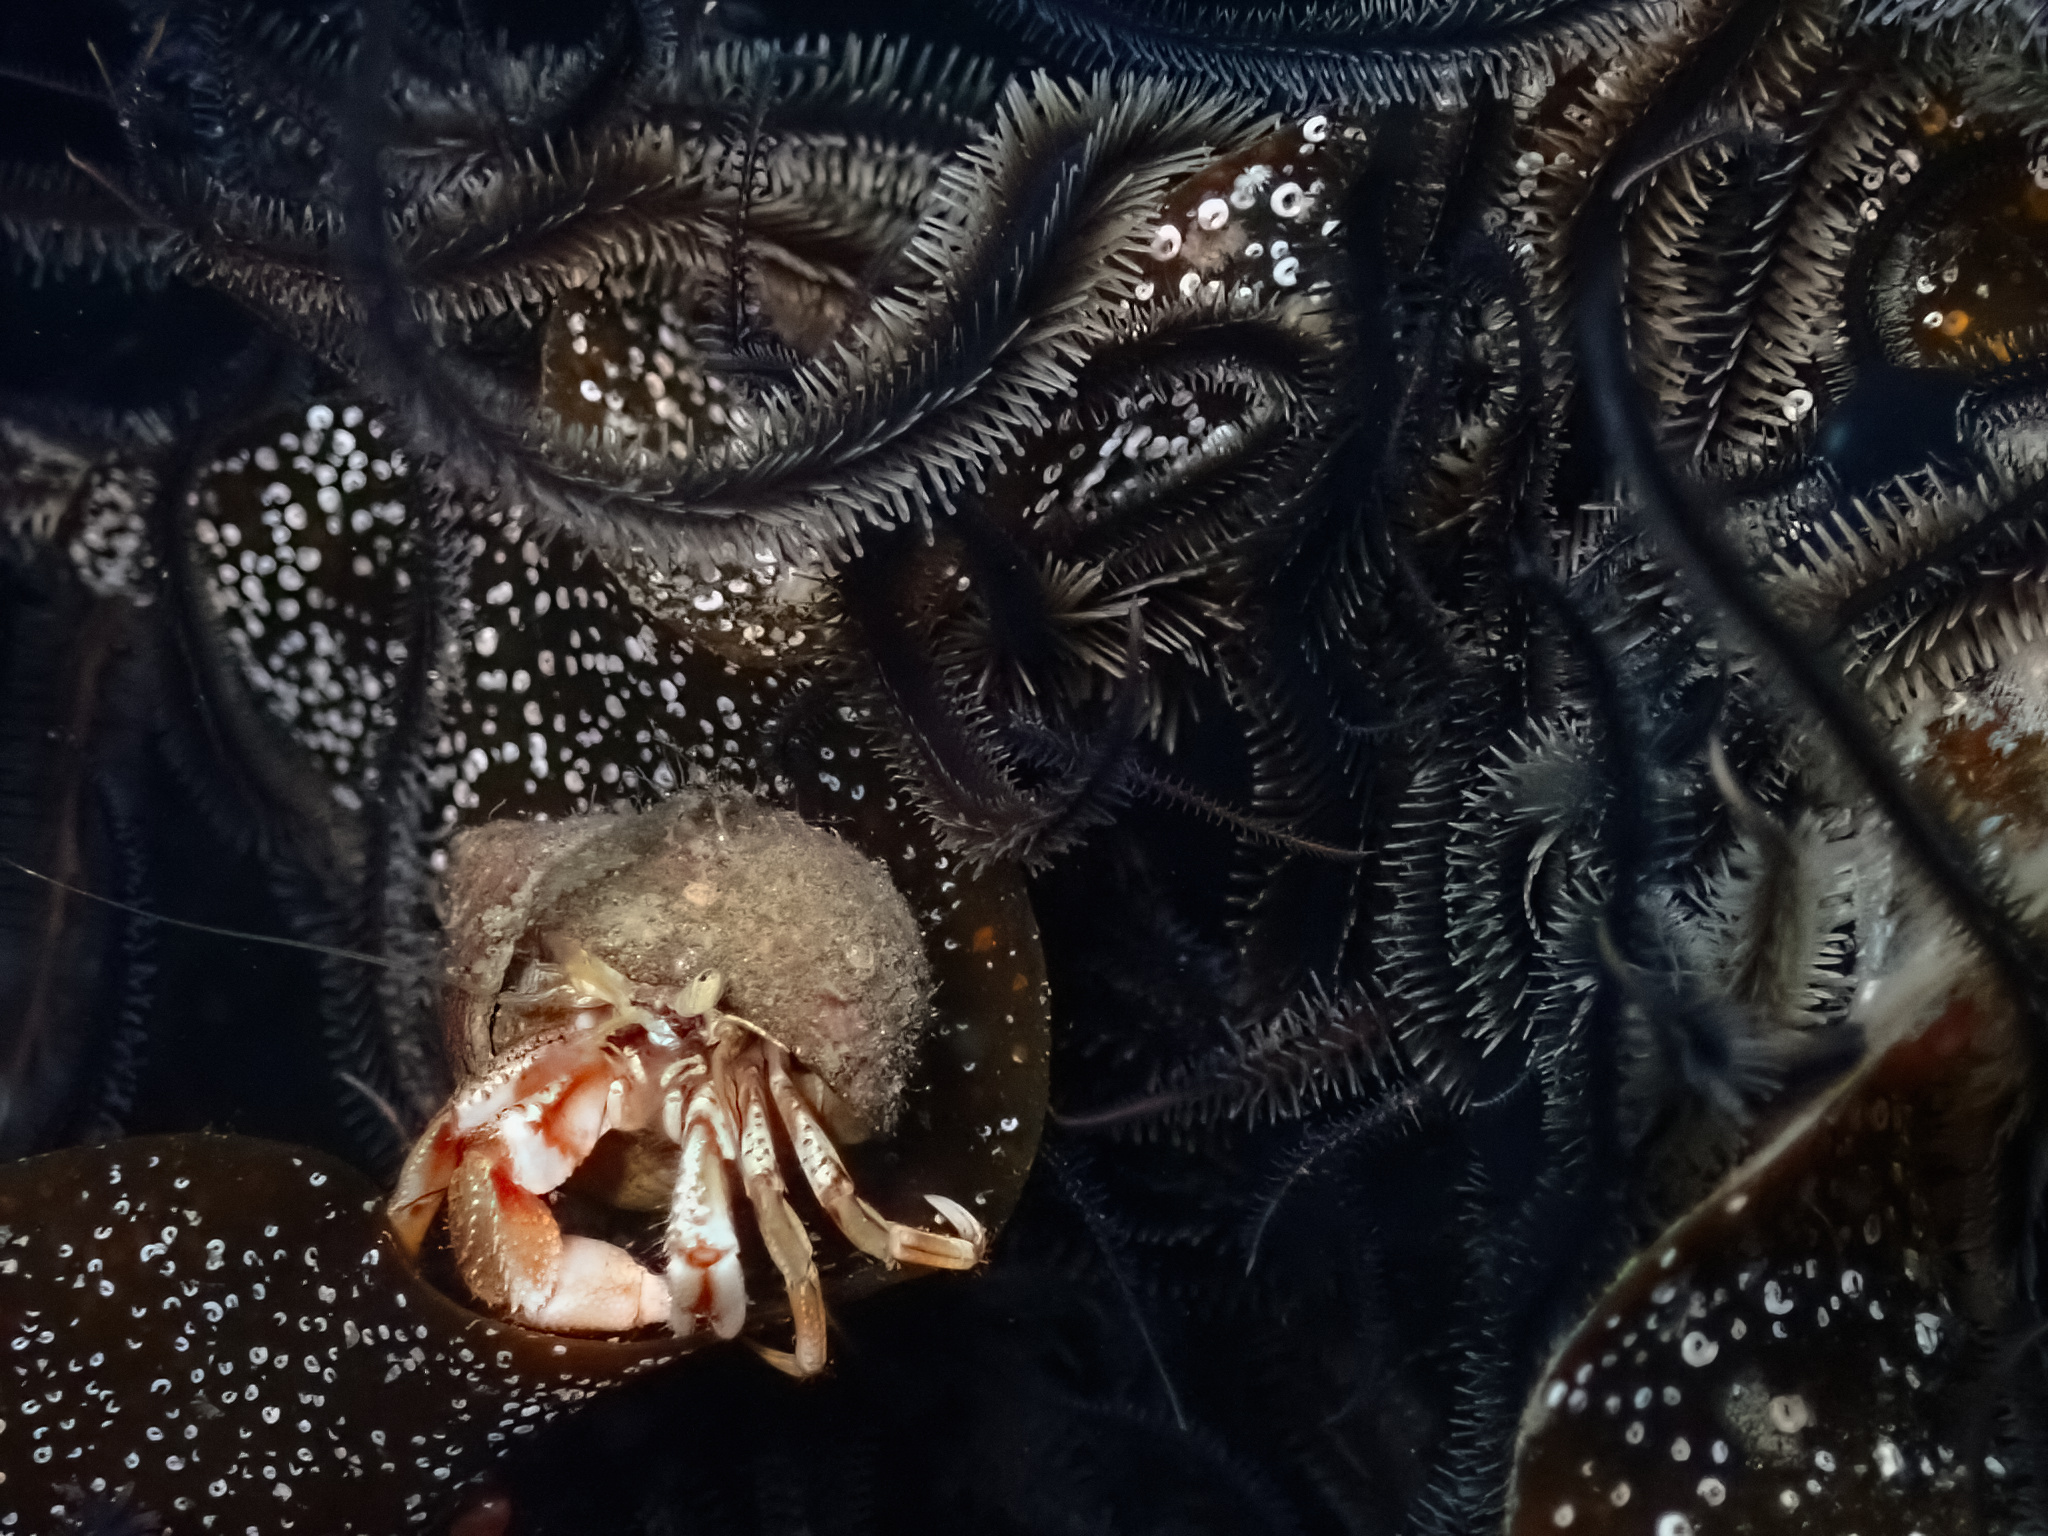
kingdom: Animalia
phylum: Echinodermata
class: Ophiuroidea
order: Ophiacanthida
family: Ophiotomidae
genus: Ophiocomina
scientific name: Ophiocomina nigra
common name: Black brittle star
